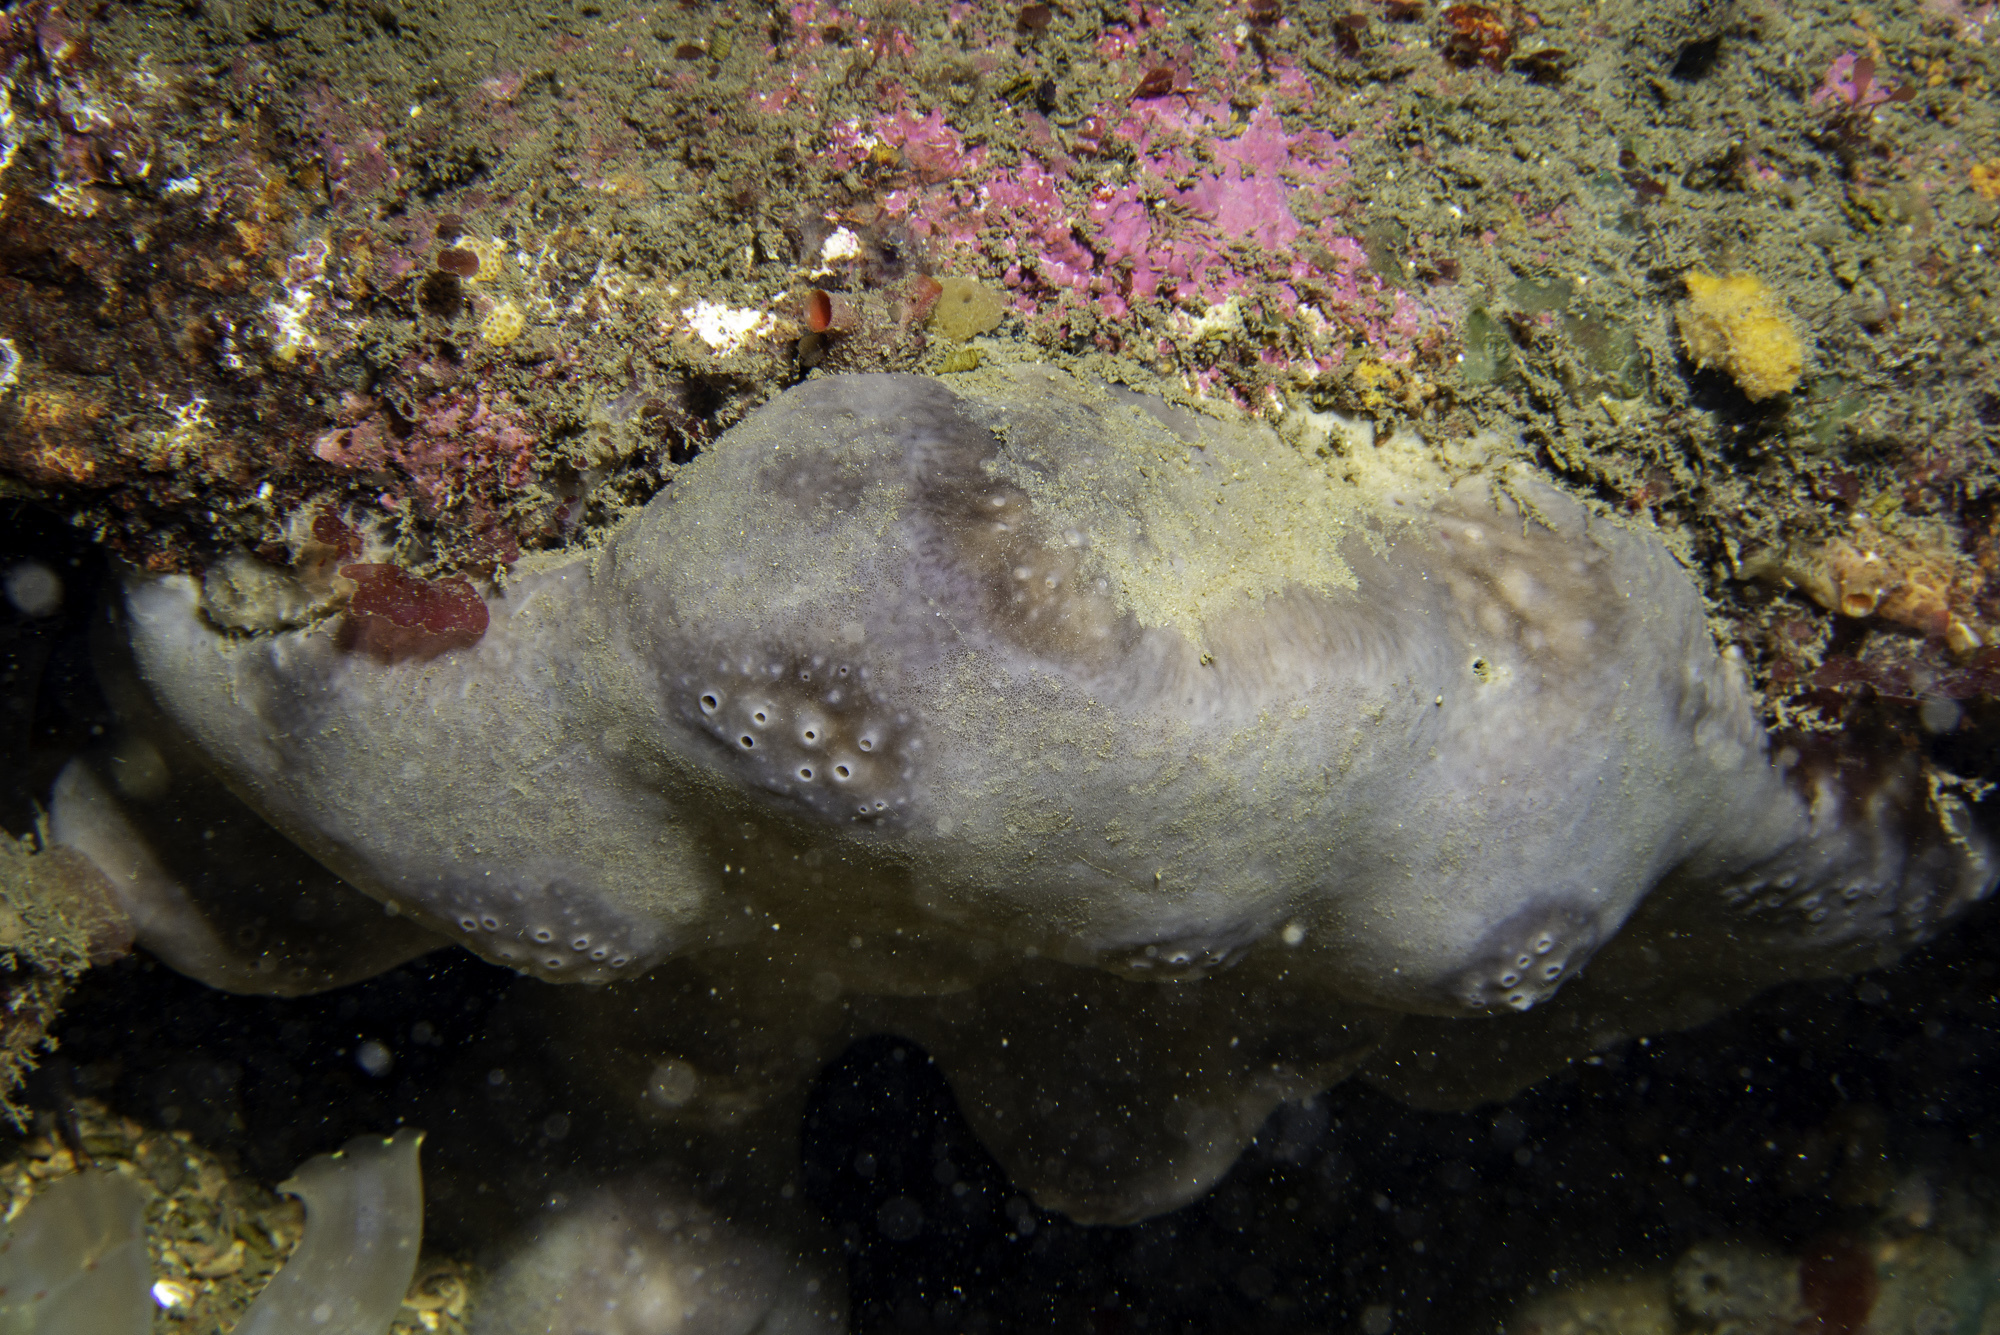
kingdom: Animalia
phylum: Porifera
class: Demospongiae
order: Tetractinellida
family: Geodiidae
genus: Pachymatisma
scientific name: Pachymatisma johnstonia
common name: Elephant ear sponge
